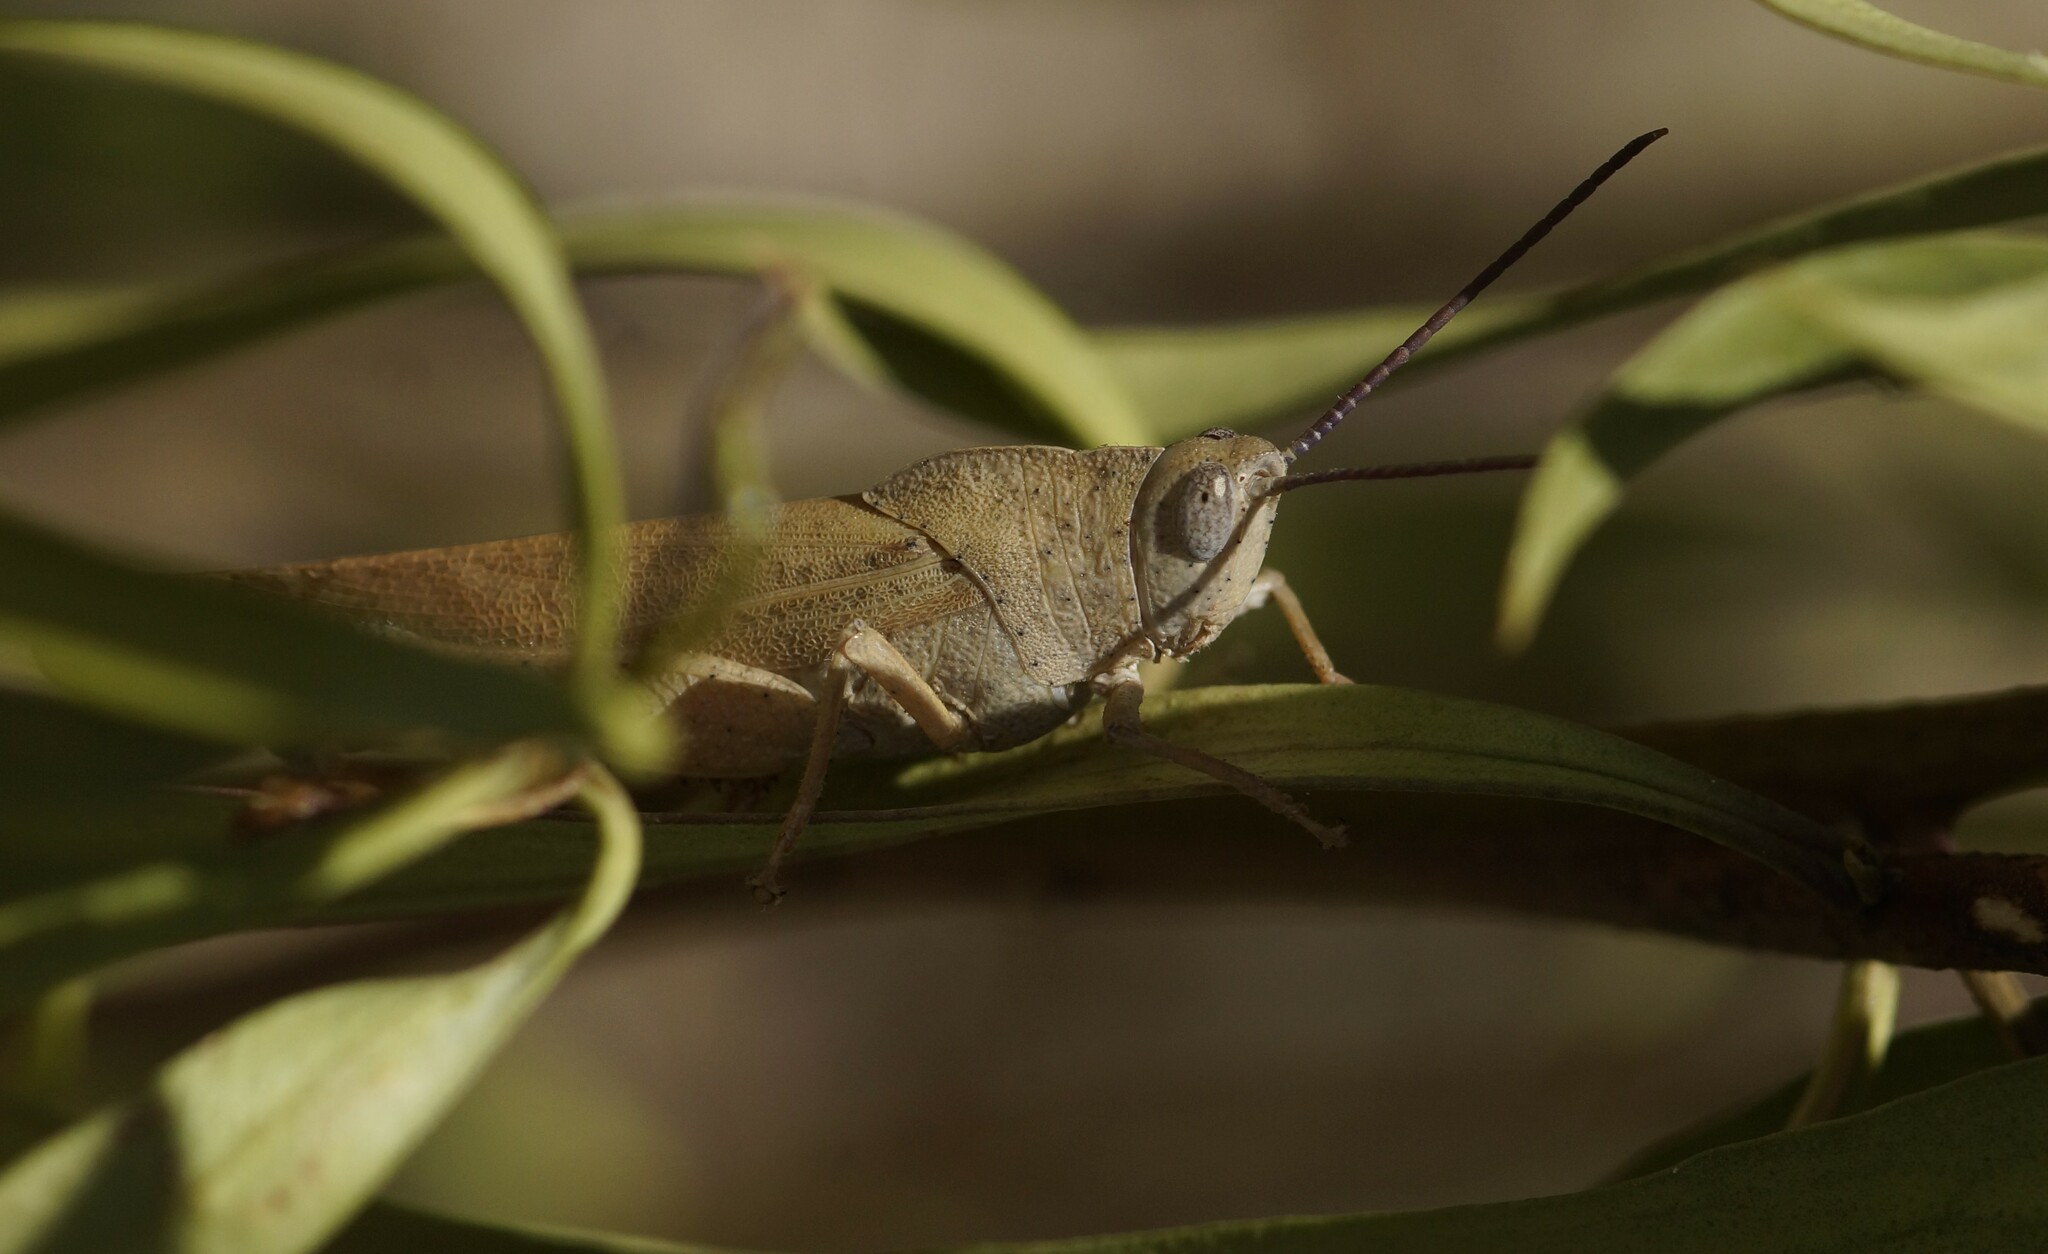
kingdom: Animalia
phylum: Arthropoda
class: Insecta
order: Orthoptera
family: Acrididae
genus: Goniaea
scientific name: Goniaea opomaloides
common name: Mimetic gumleaf grasshopper
